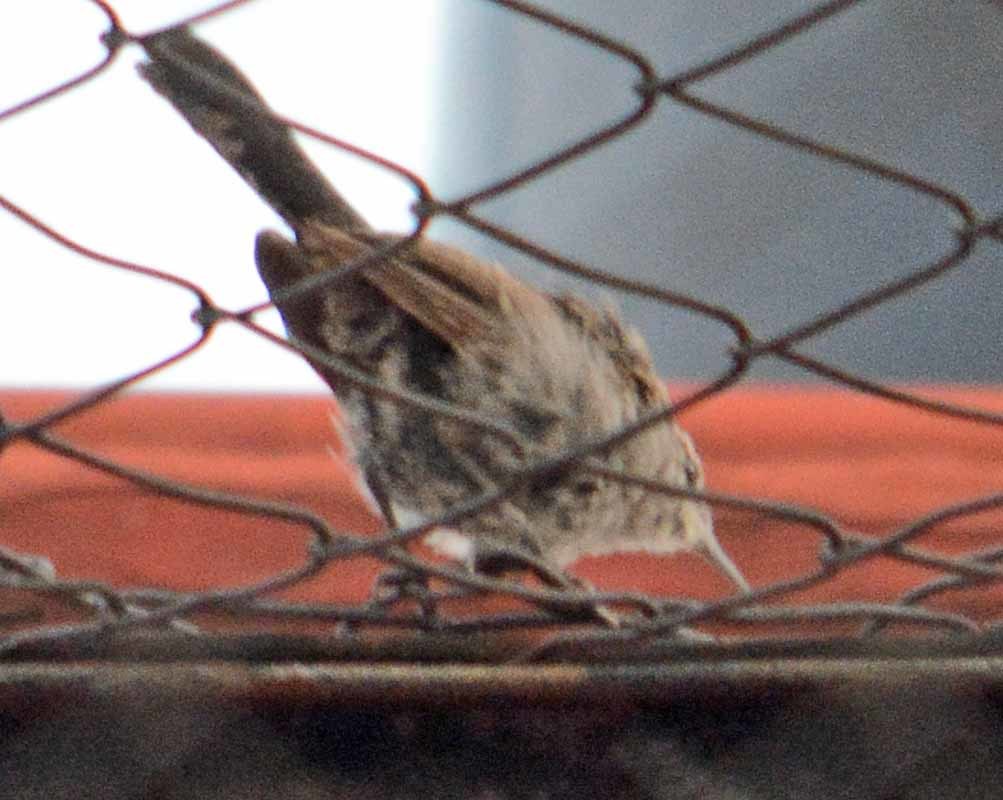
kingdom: Animalia
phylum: Chordata
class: Aves
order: Passeriformes
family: Troglodytidae
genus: Thryomanes
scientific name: Thryomanes bewickii
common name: Bewick's wren
